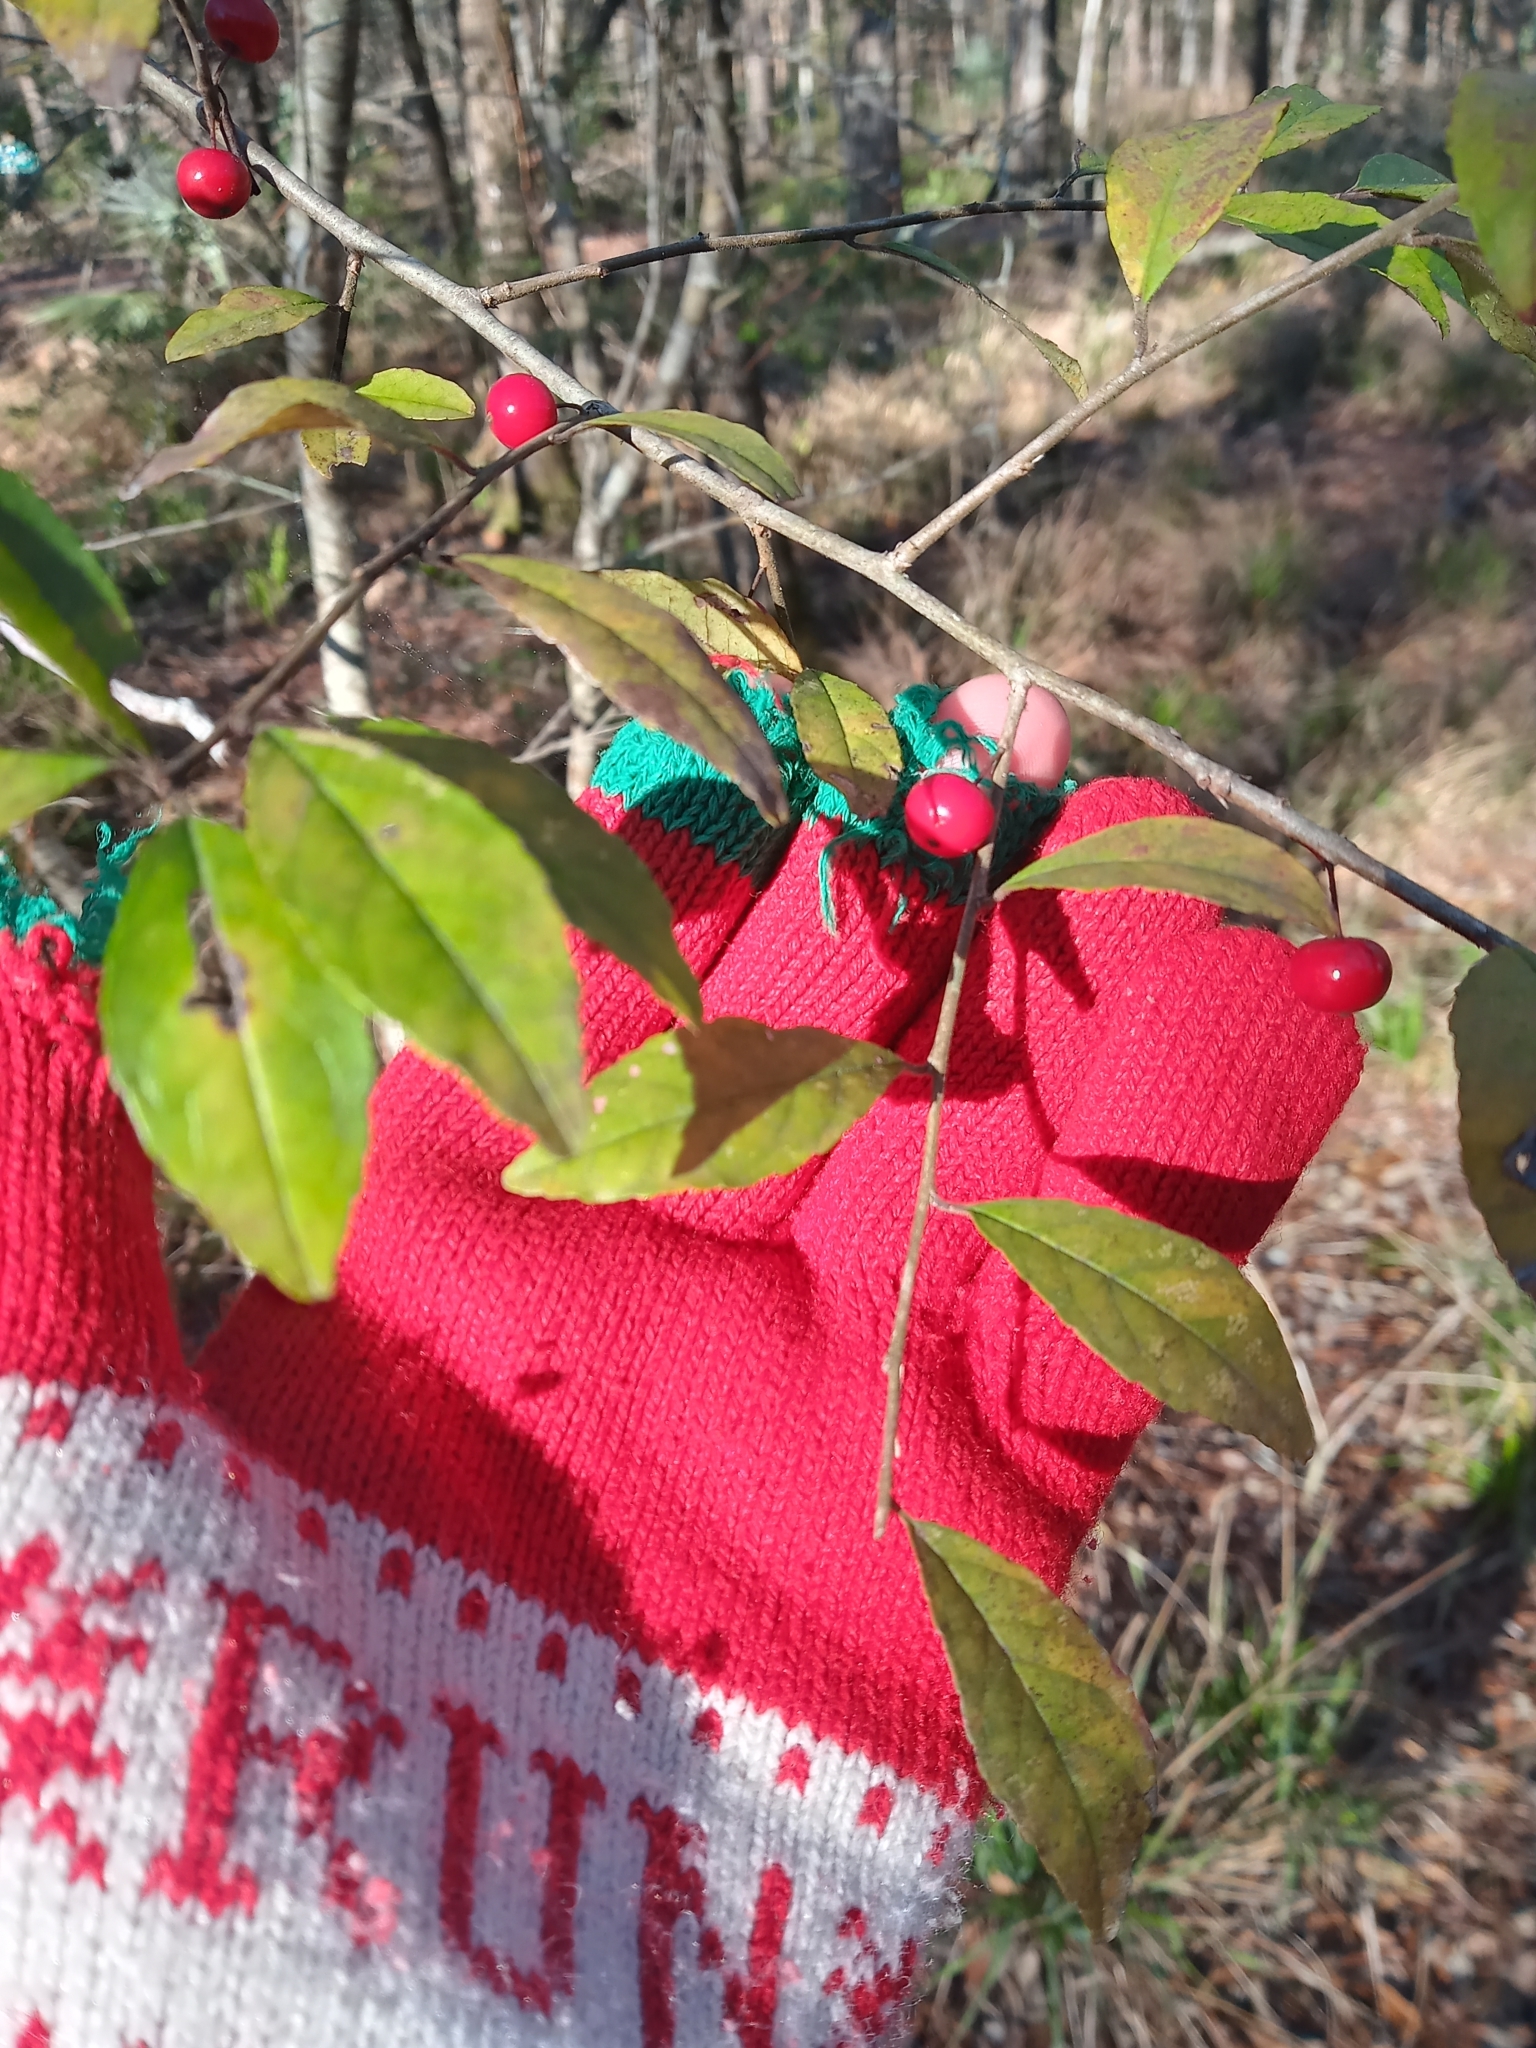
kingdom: Plantae
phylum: Tracheophyta
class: Magnoliopsida
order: Aquifoliales
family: Aquifoliaceae
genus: Ilex
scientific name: Ilex decidua
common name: Possum-haw
